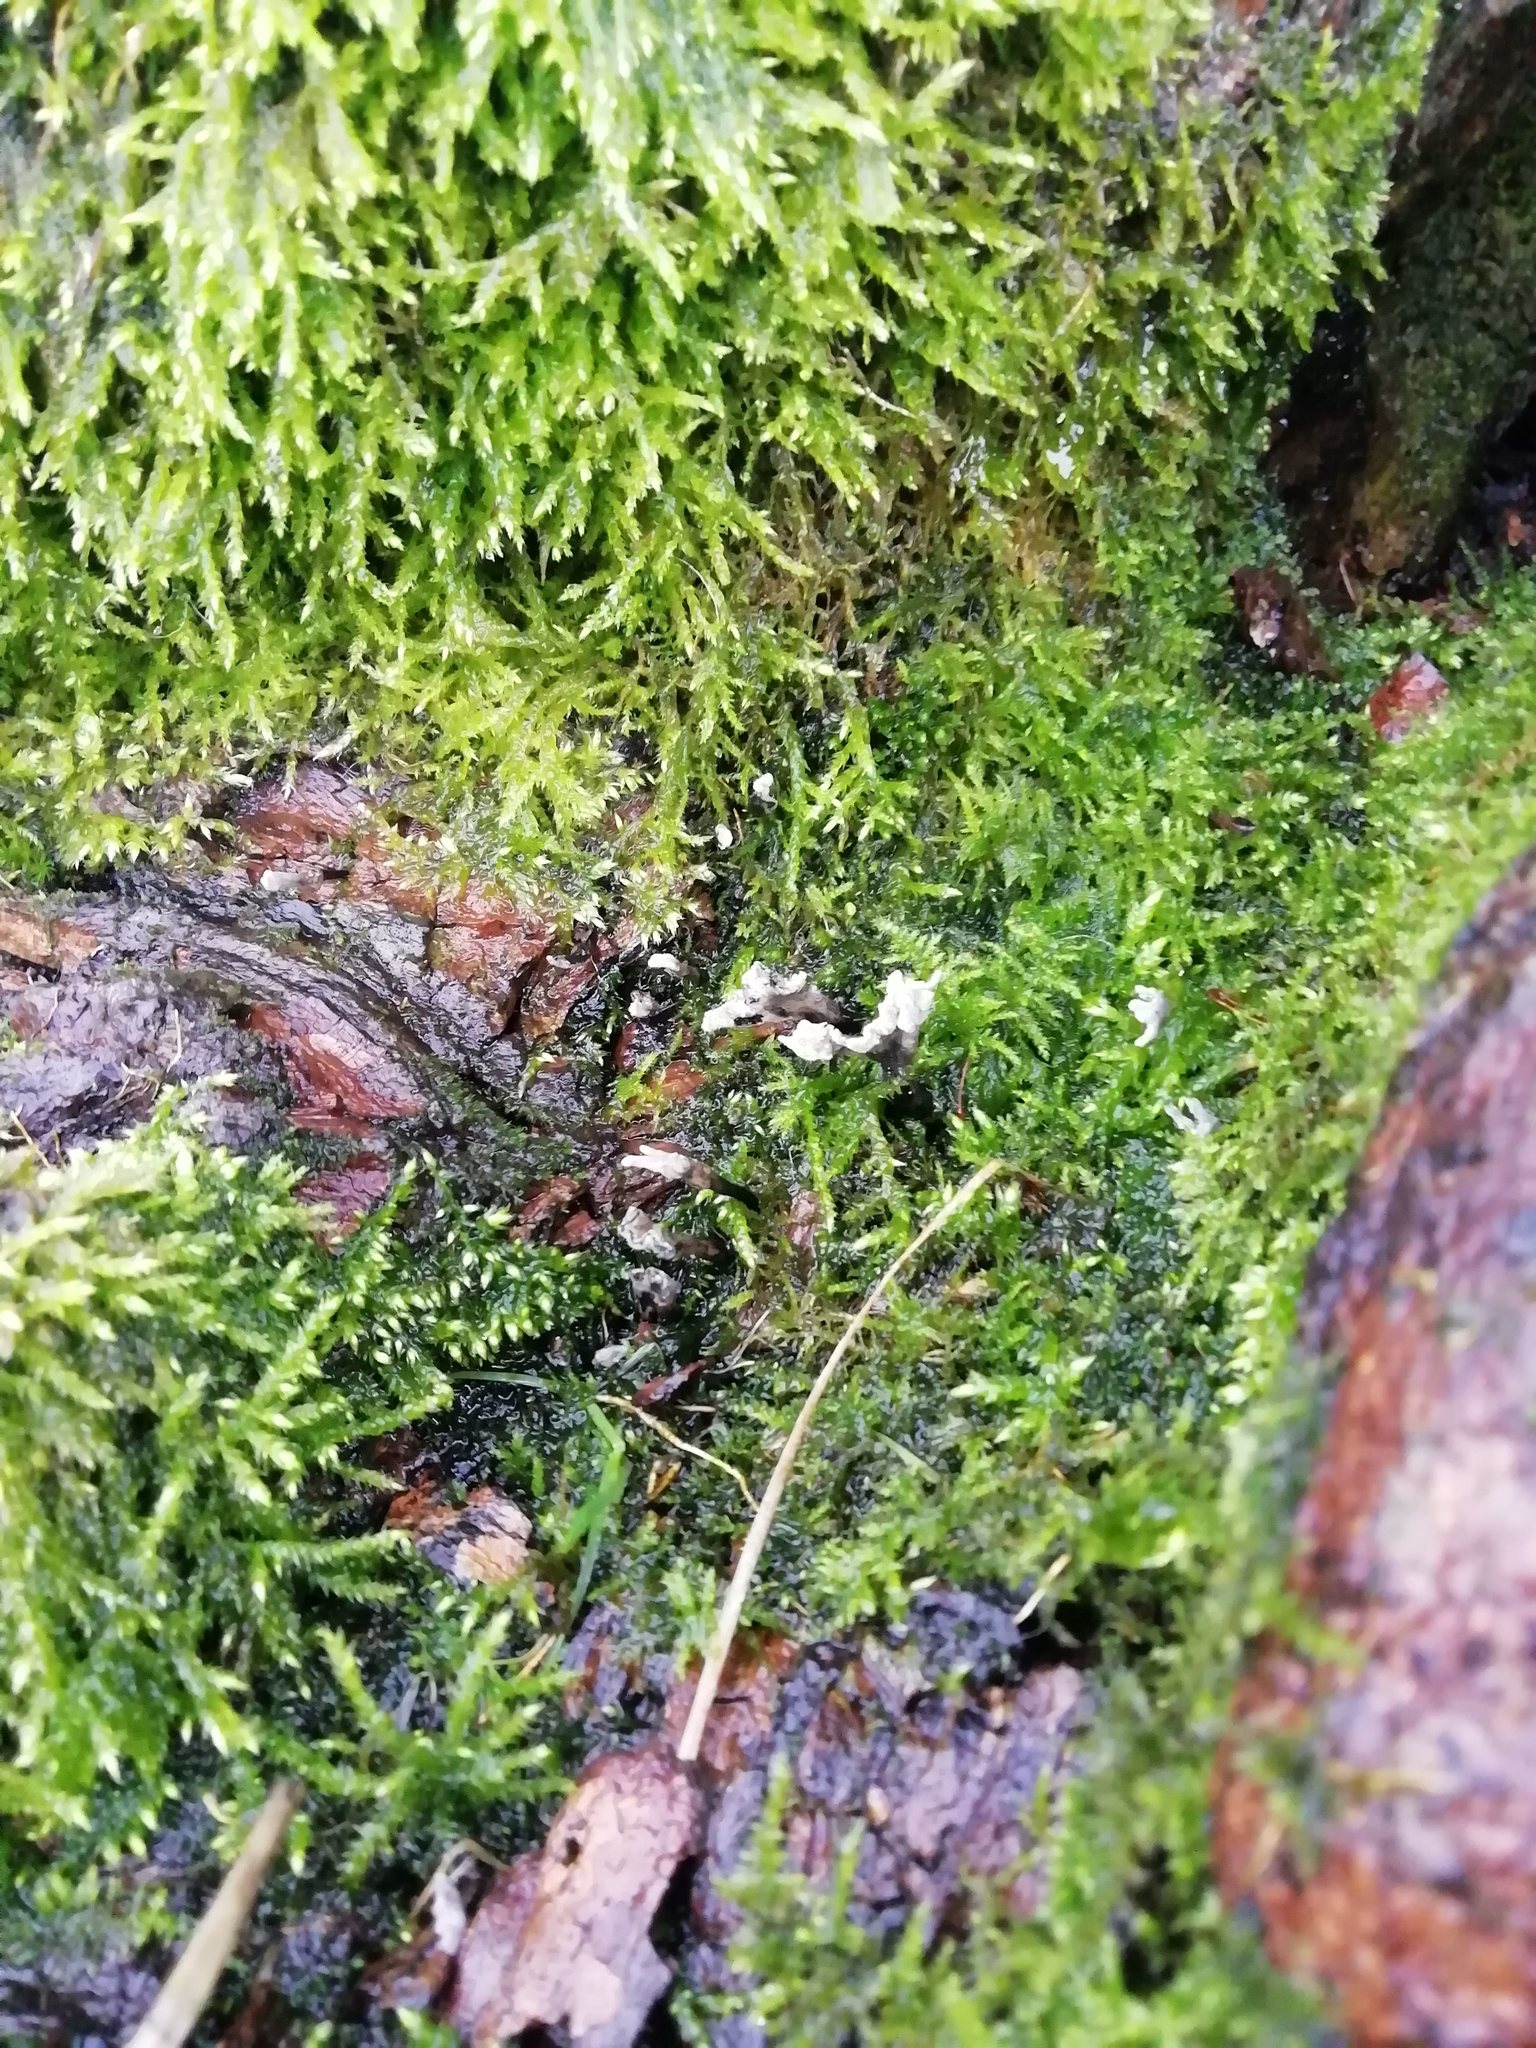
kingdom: Fungi
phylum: Ascomycota
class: Sordariomycetes
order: Xylariales
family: Xylariaceae
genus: Xylaria
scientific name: Xylaria hypoxylon
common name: Candle-snuff fungus
